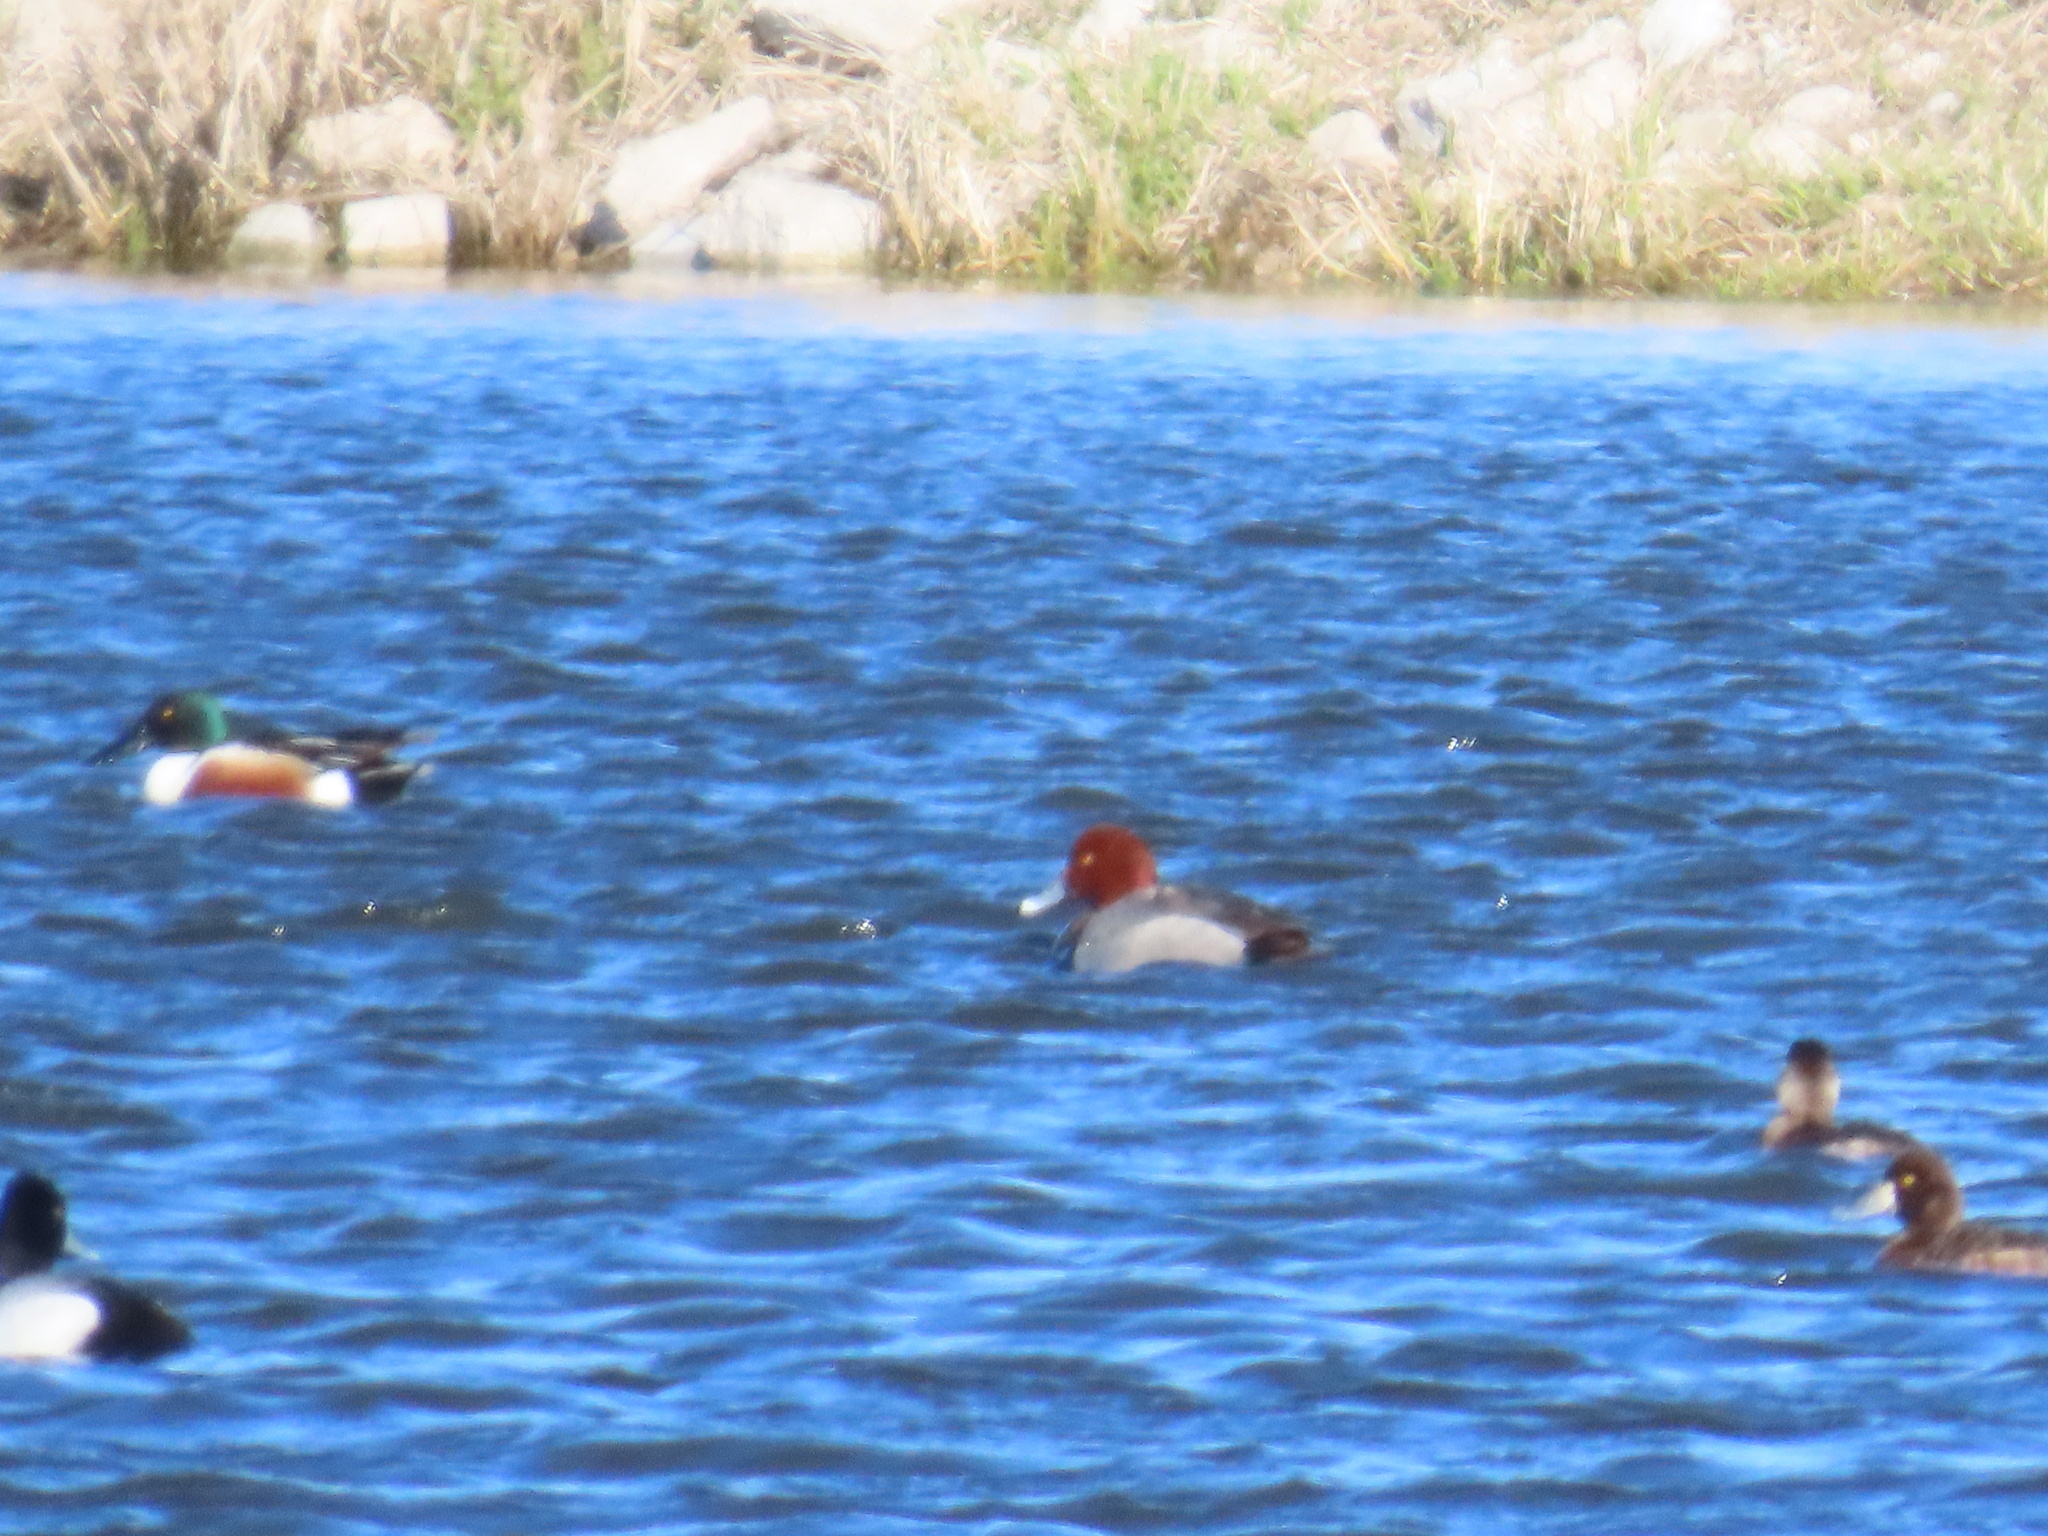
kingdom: Animalia
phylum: Chordata
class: Aves
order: Anseriformes
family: Anatidae
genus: Aythya
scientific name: Aythya americana
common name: Redhead
